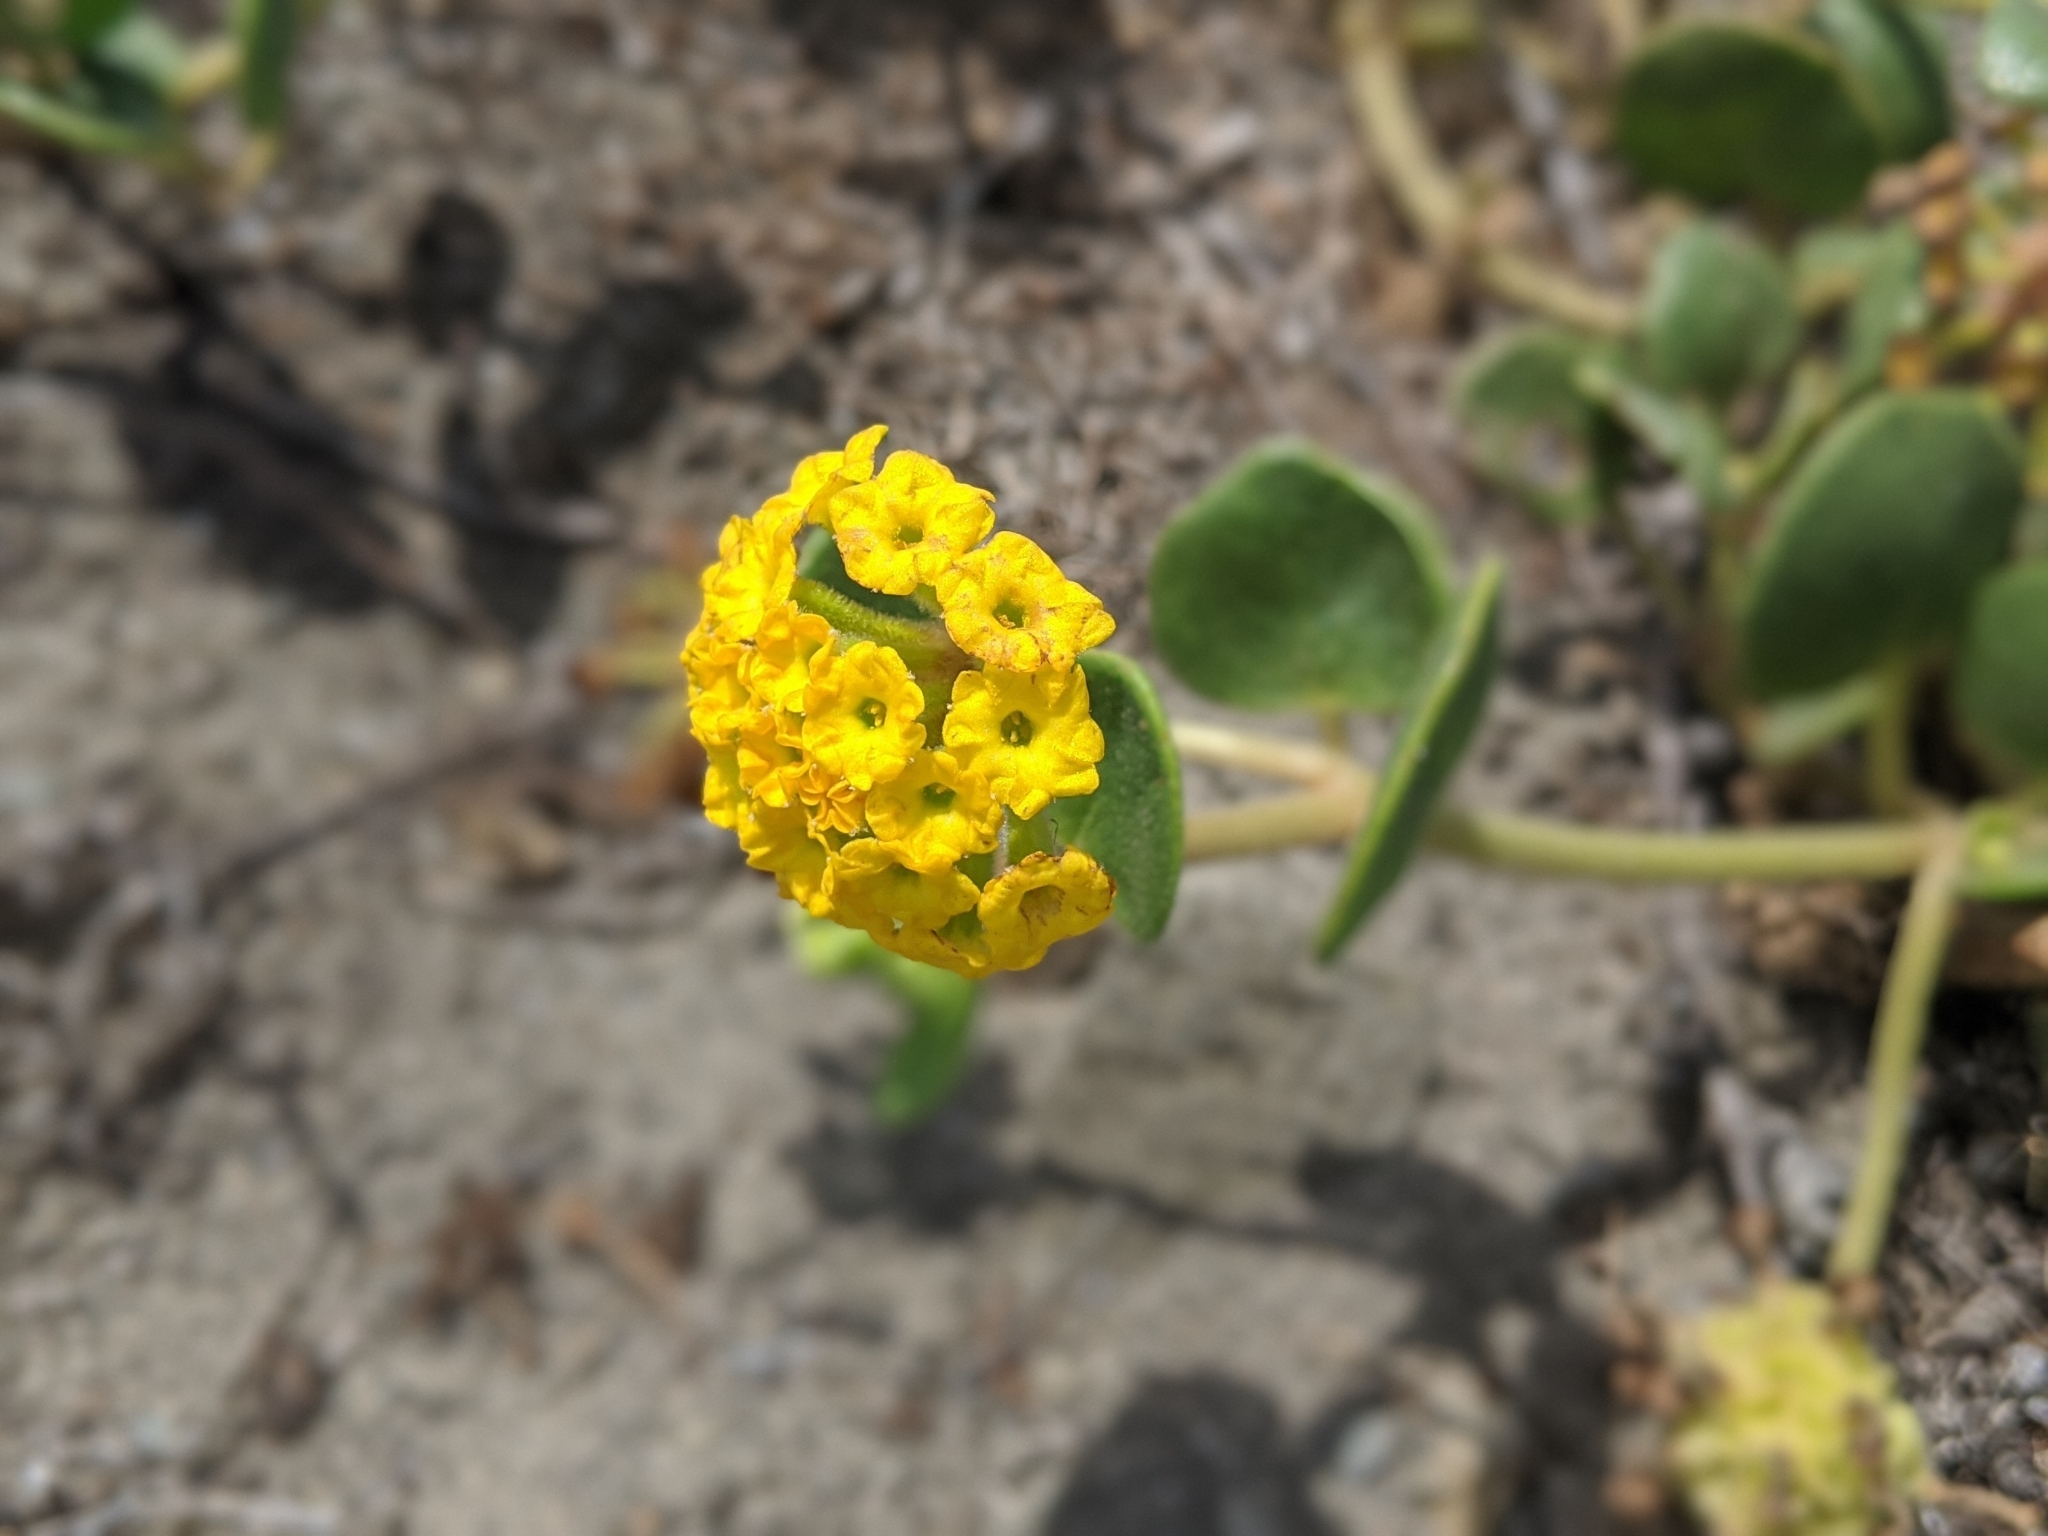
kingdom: Plantae
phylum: Tracheophyta
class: Magnoliopsida
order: Caryophyllales
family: Nyctaginaceae
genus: Abronia
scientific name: Abronia latifolia
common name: Yellow sand-verbena
